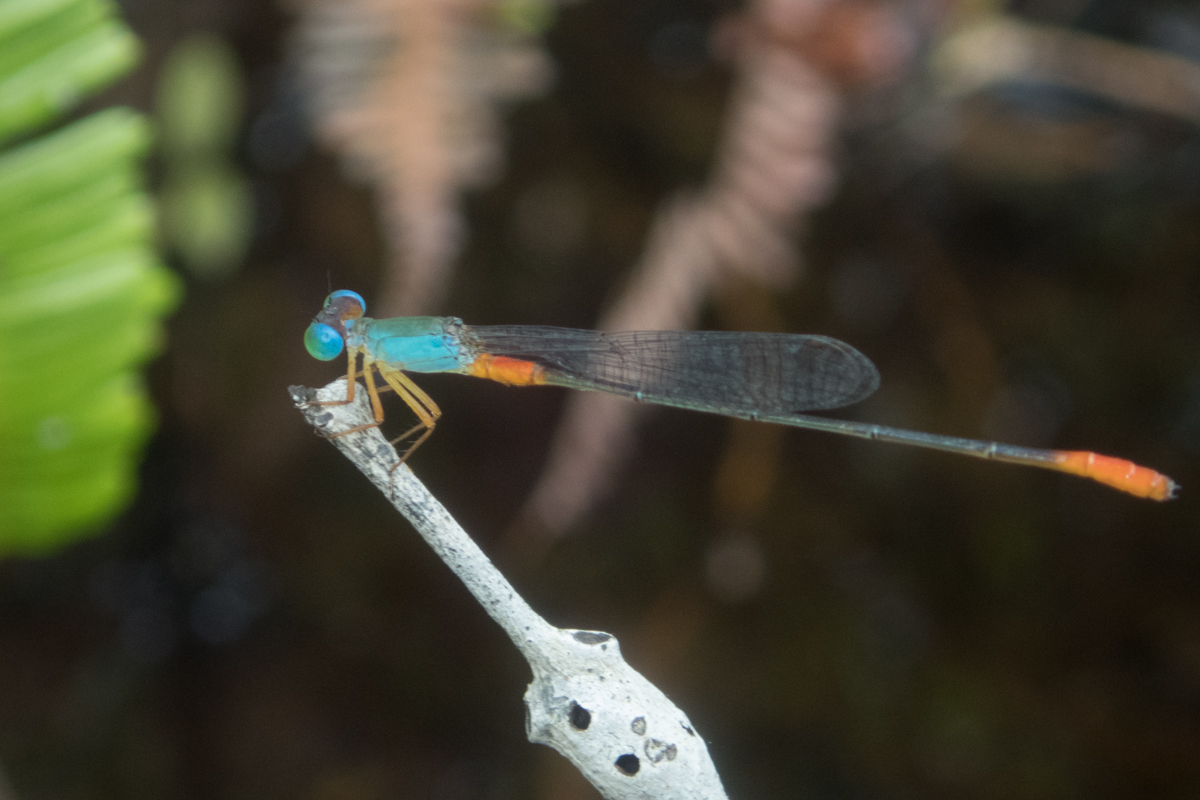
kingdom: Animalia
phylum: Arthropoda
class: Insecta
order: Odonata
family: Coenagrionidae
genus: Ceriagrion
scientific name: Ceriagrion cerinorubellum
